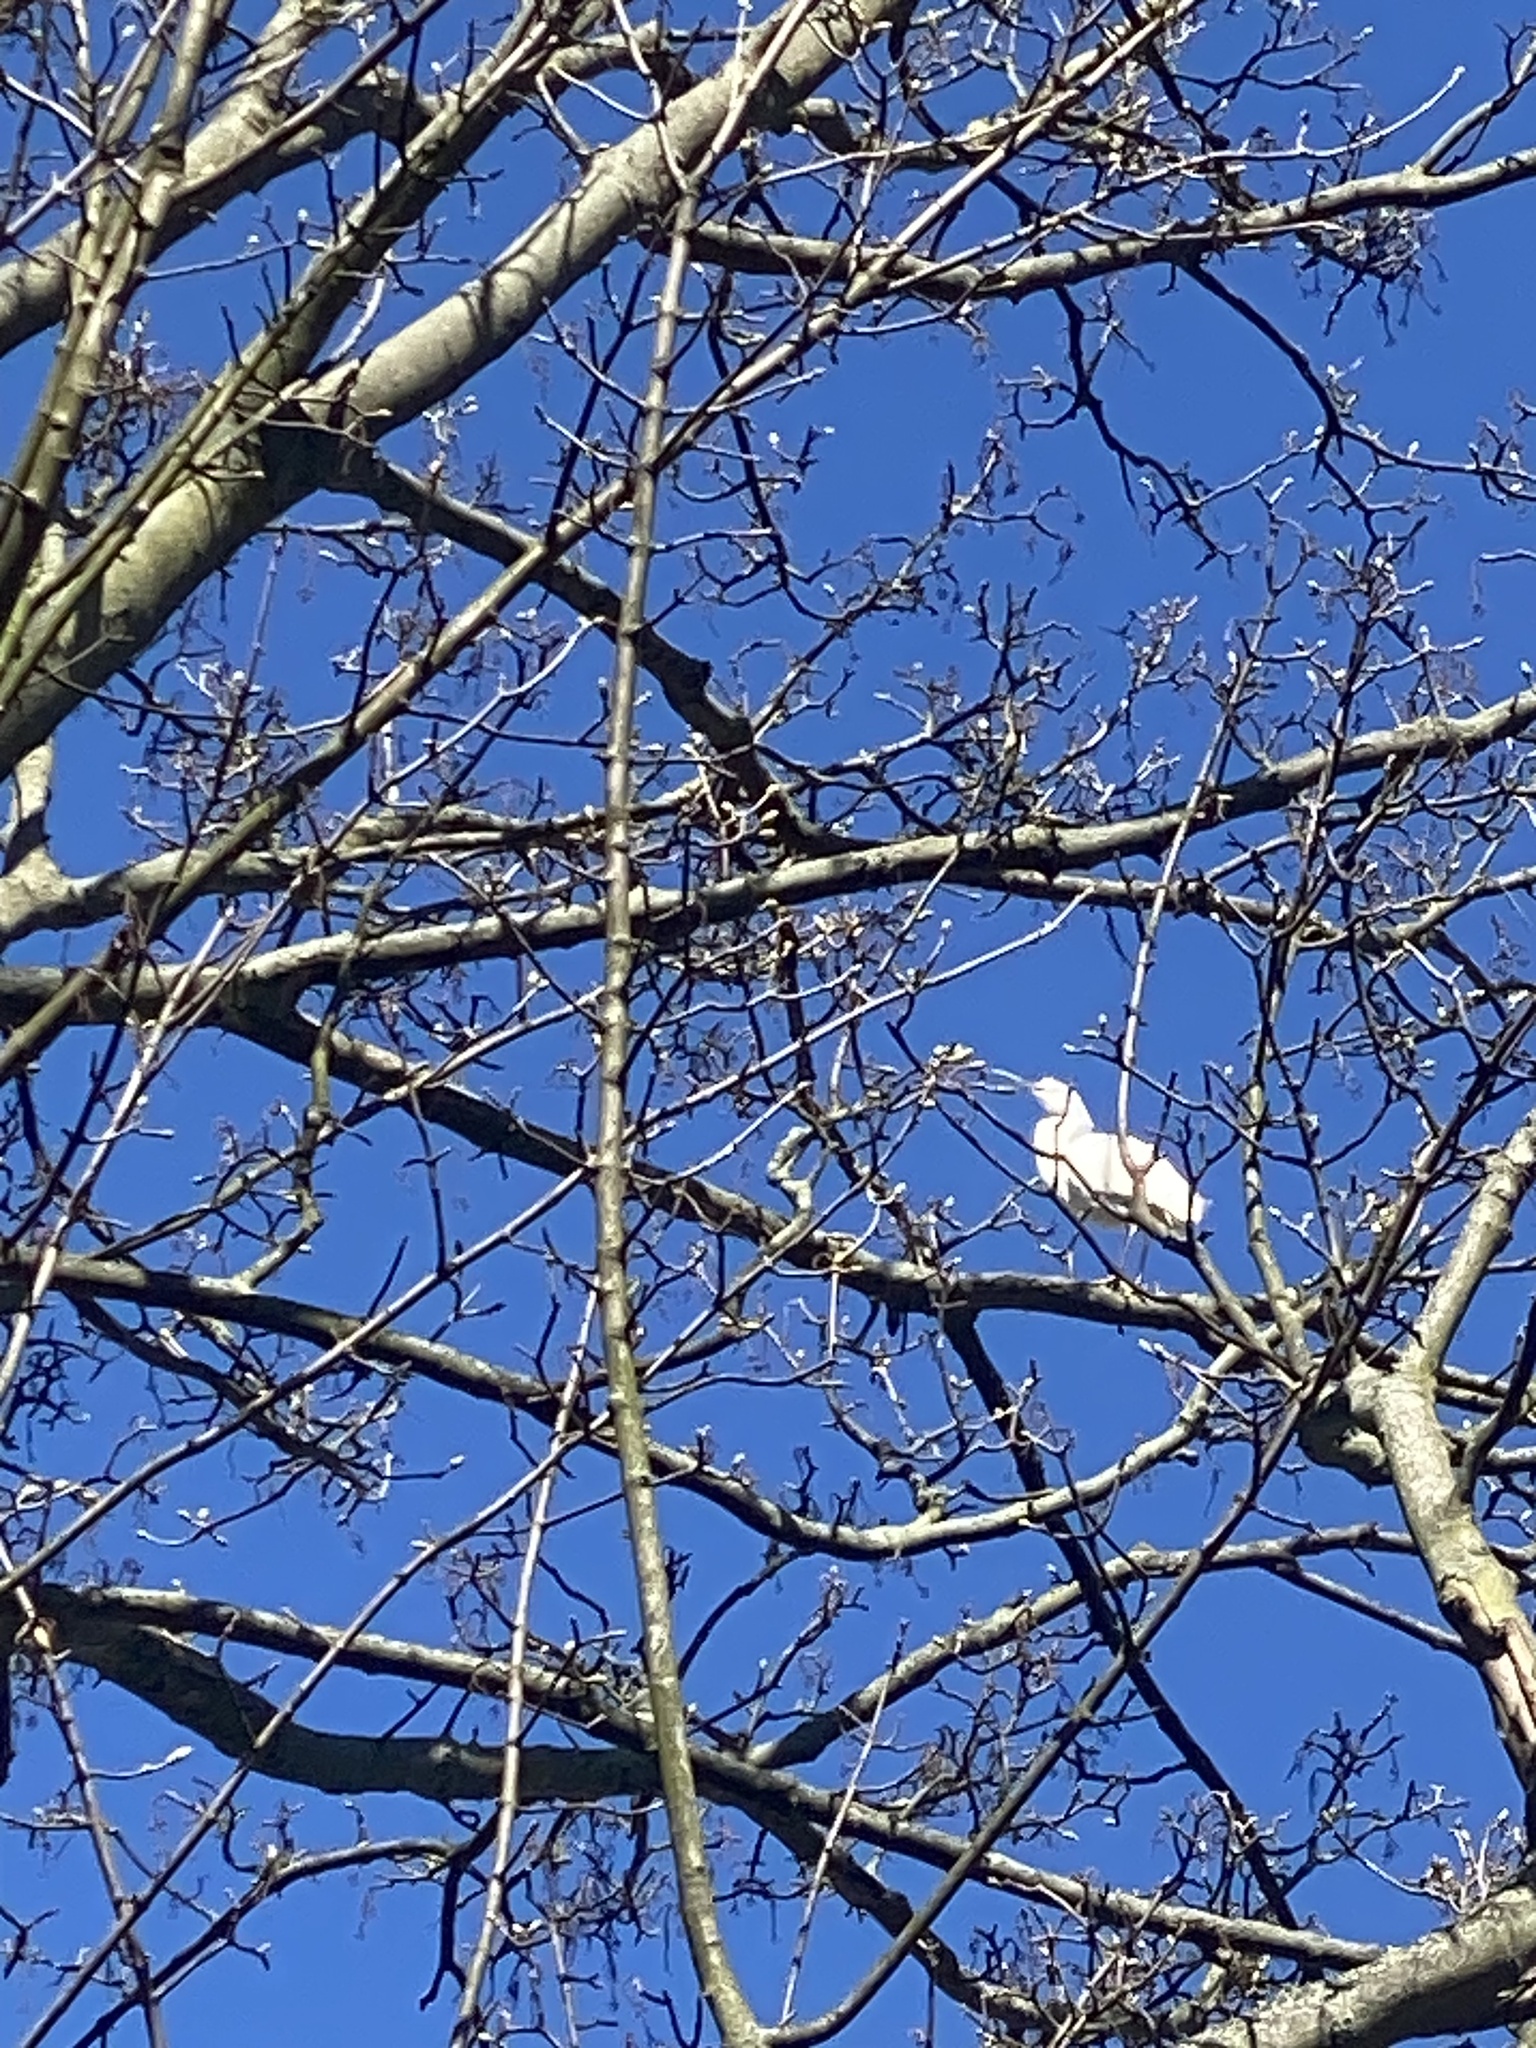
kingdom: Animalia
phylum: Chordata
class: Aves
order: Pelecaniformes
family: Ardeidae
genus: Egretta
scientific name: Egretta garzetta
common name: Little egret
